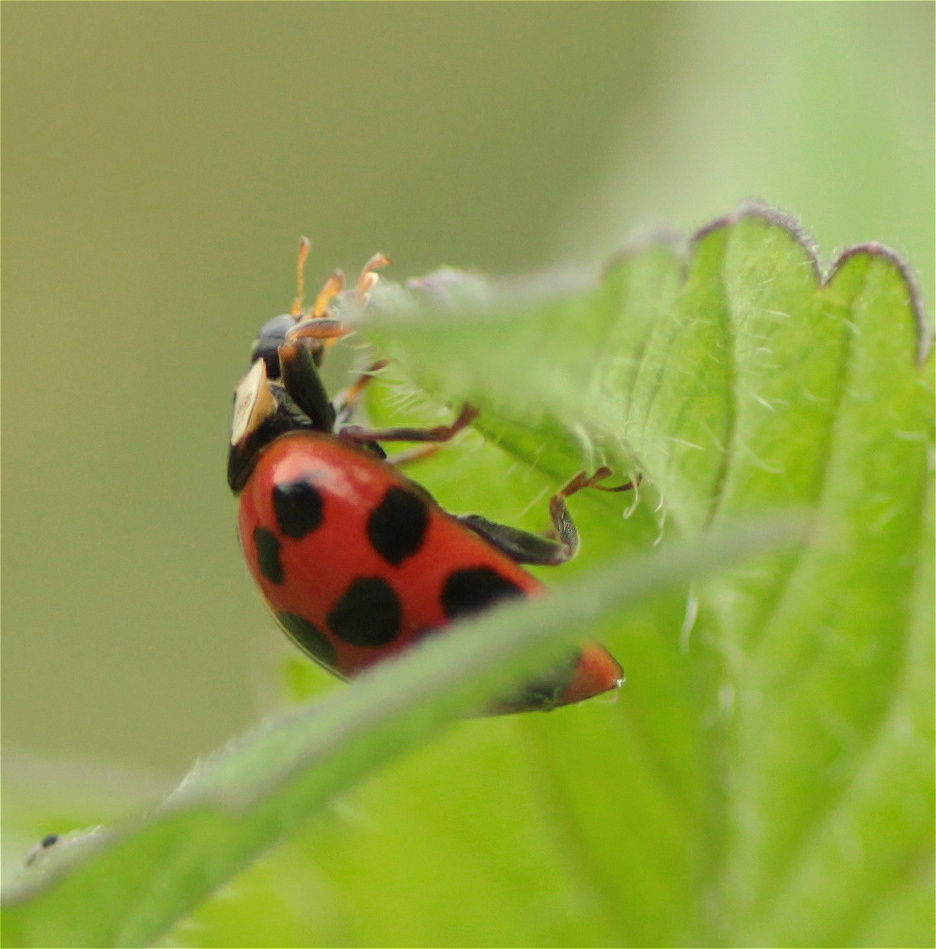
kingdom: Animalia
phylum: Arthropoda
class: Insecta
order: Coleoptera
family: Coccinellidae
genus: Harmonia
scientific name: Harmonia axyridis
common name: Harlequin ladybird
